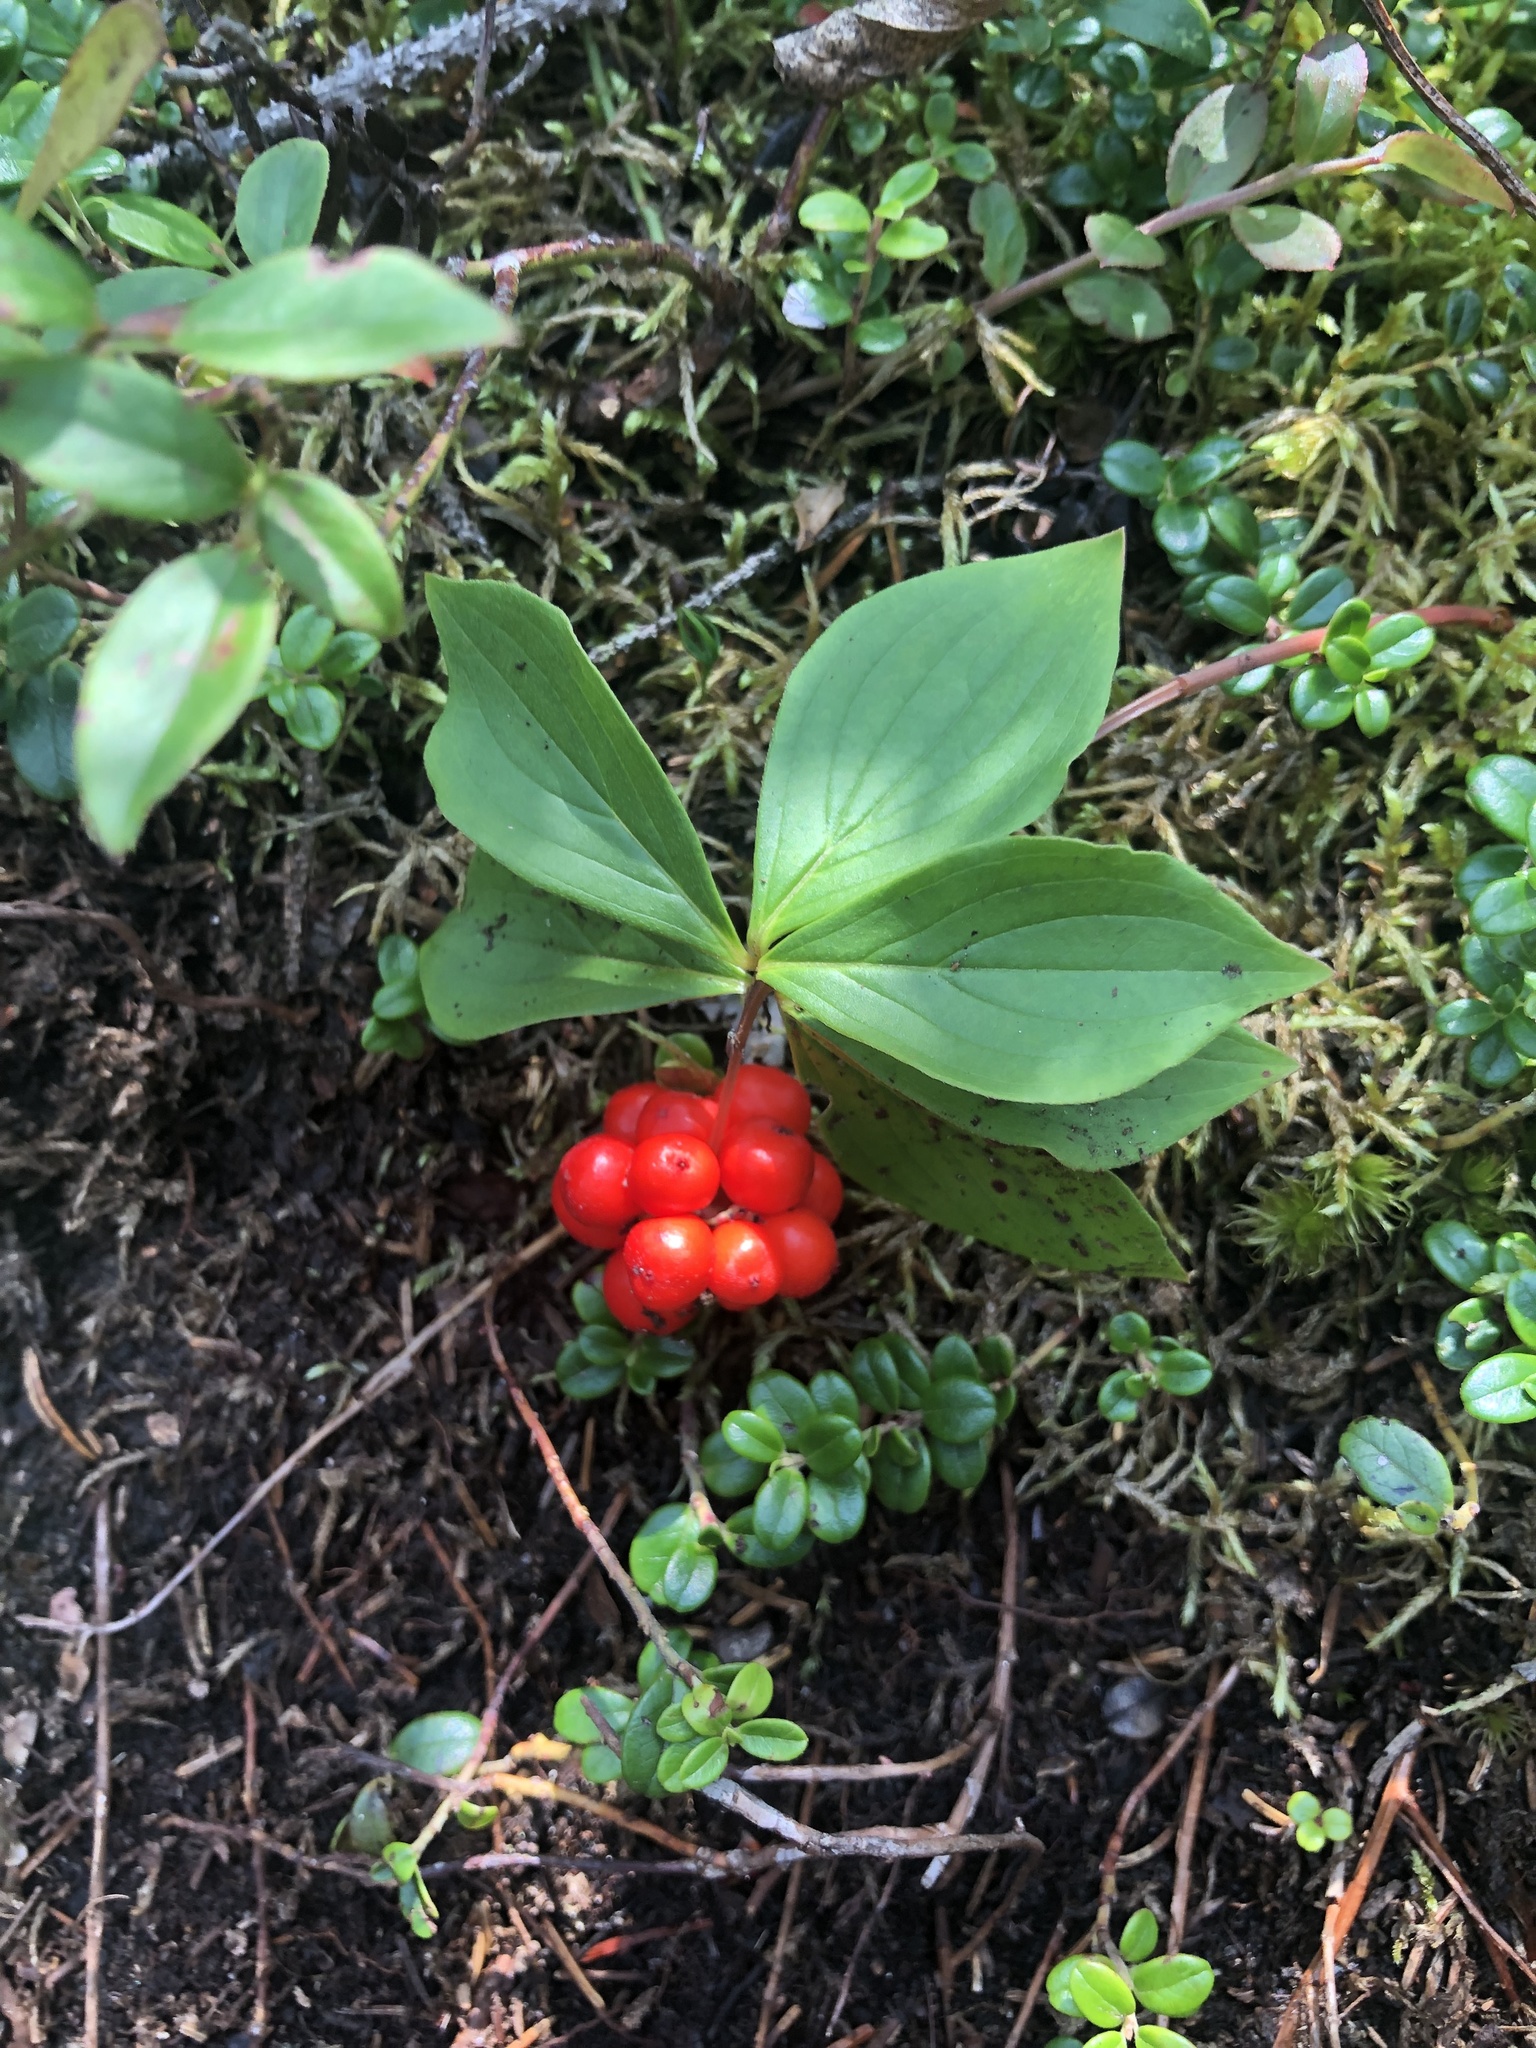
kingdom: Plantae
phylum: Tracheophyta
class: Magnoliopsida
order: Cornales
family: Cornaceae
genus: Cornus
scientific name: Cornus canadensis
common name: Creeping dogwood
